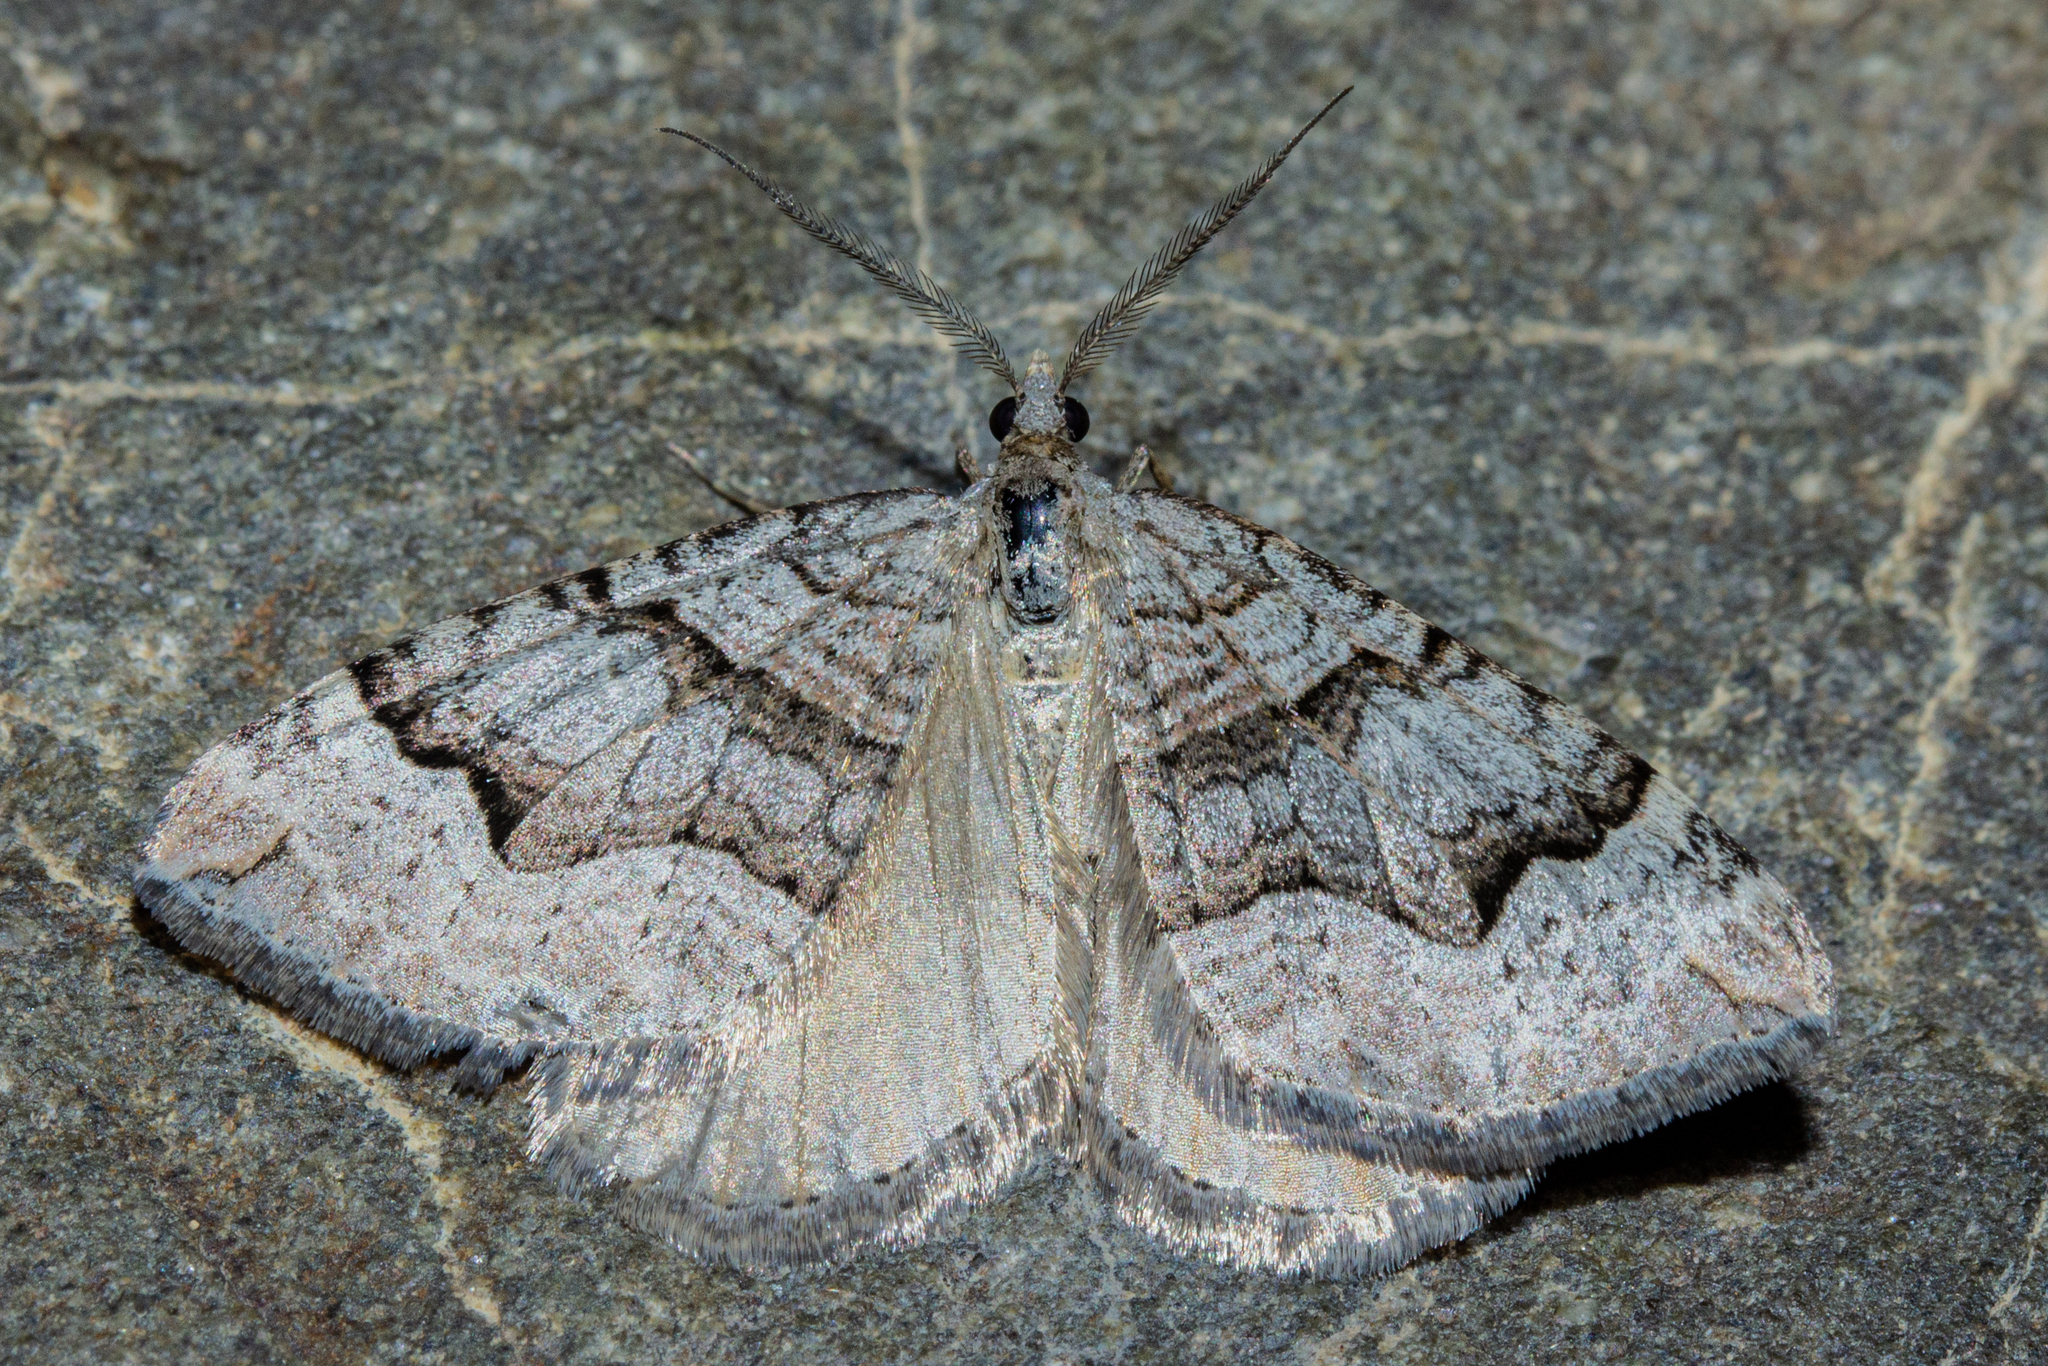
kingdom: Animalia
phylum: Arthropoda
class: Insecta
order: Lepidoptera
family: Geometridae
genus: Xanthorhoe
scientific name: Xanthorhoe orophylla
